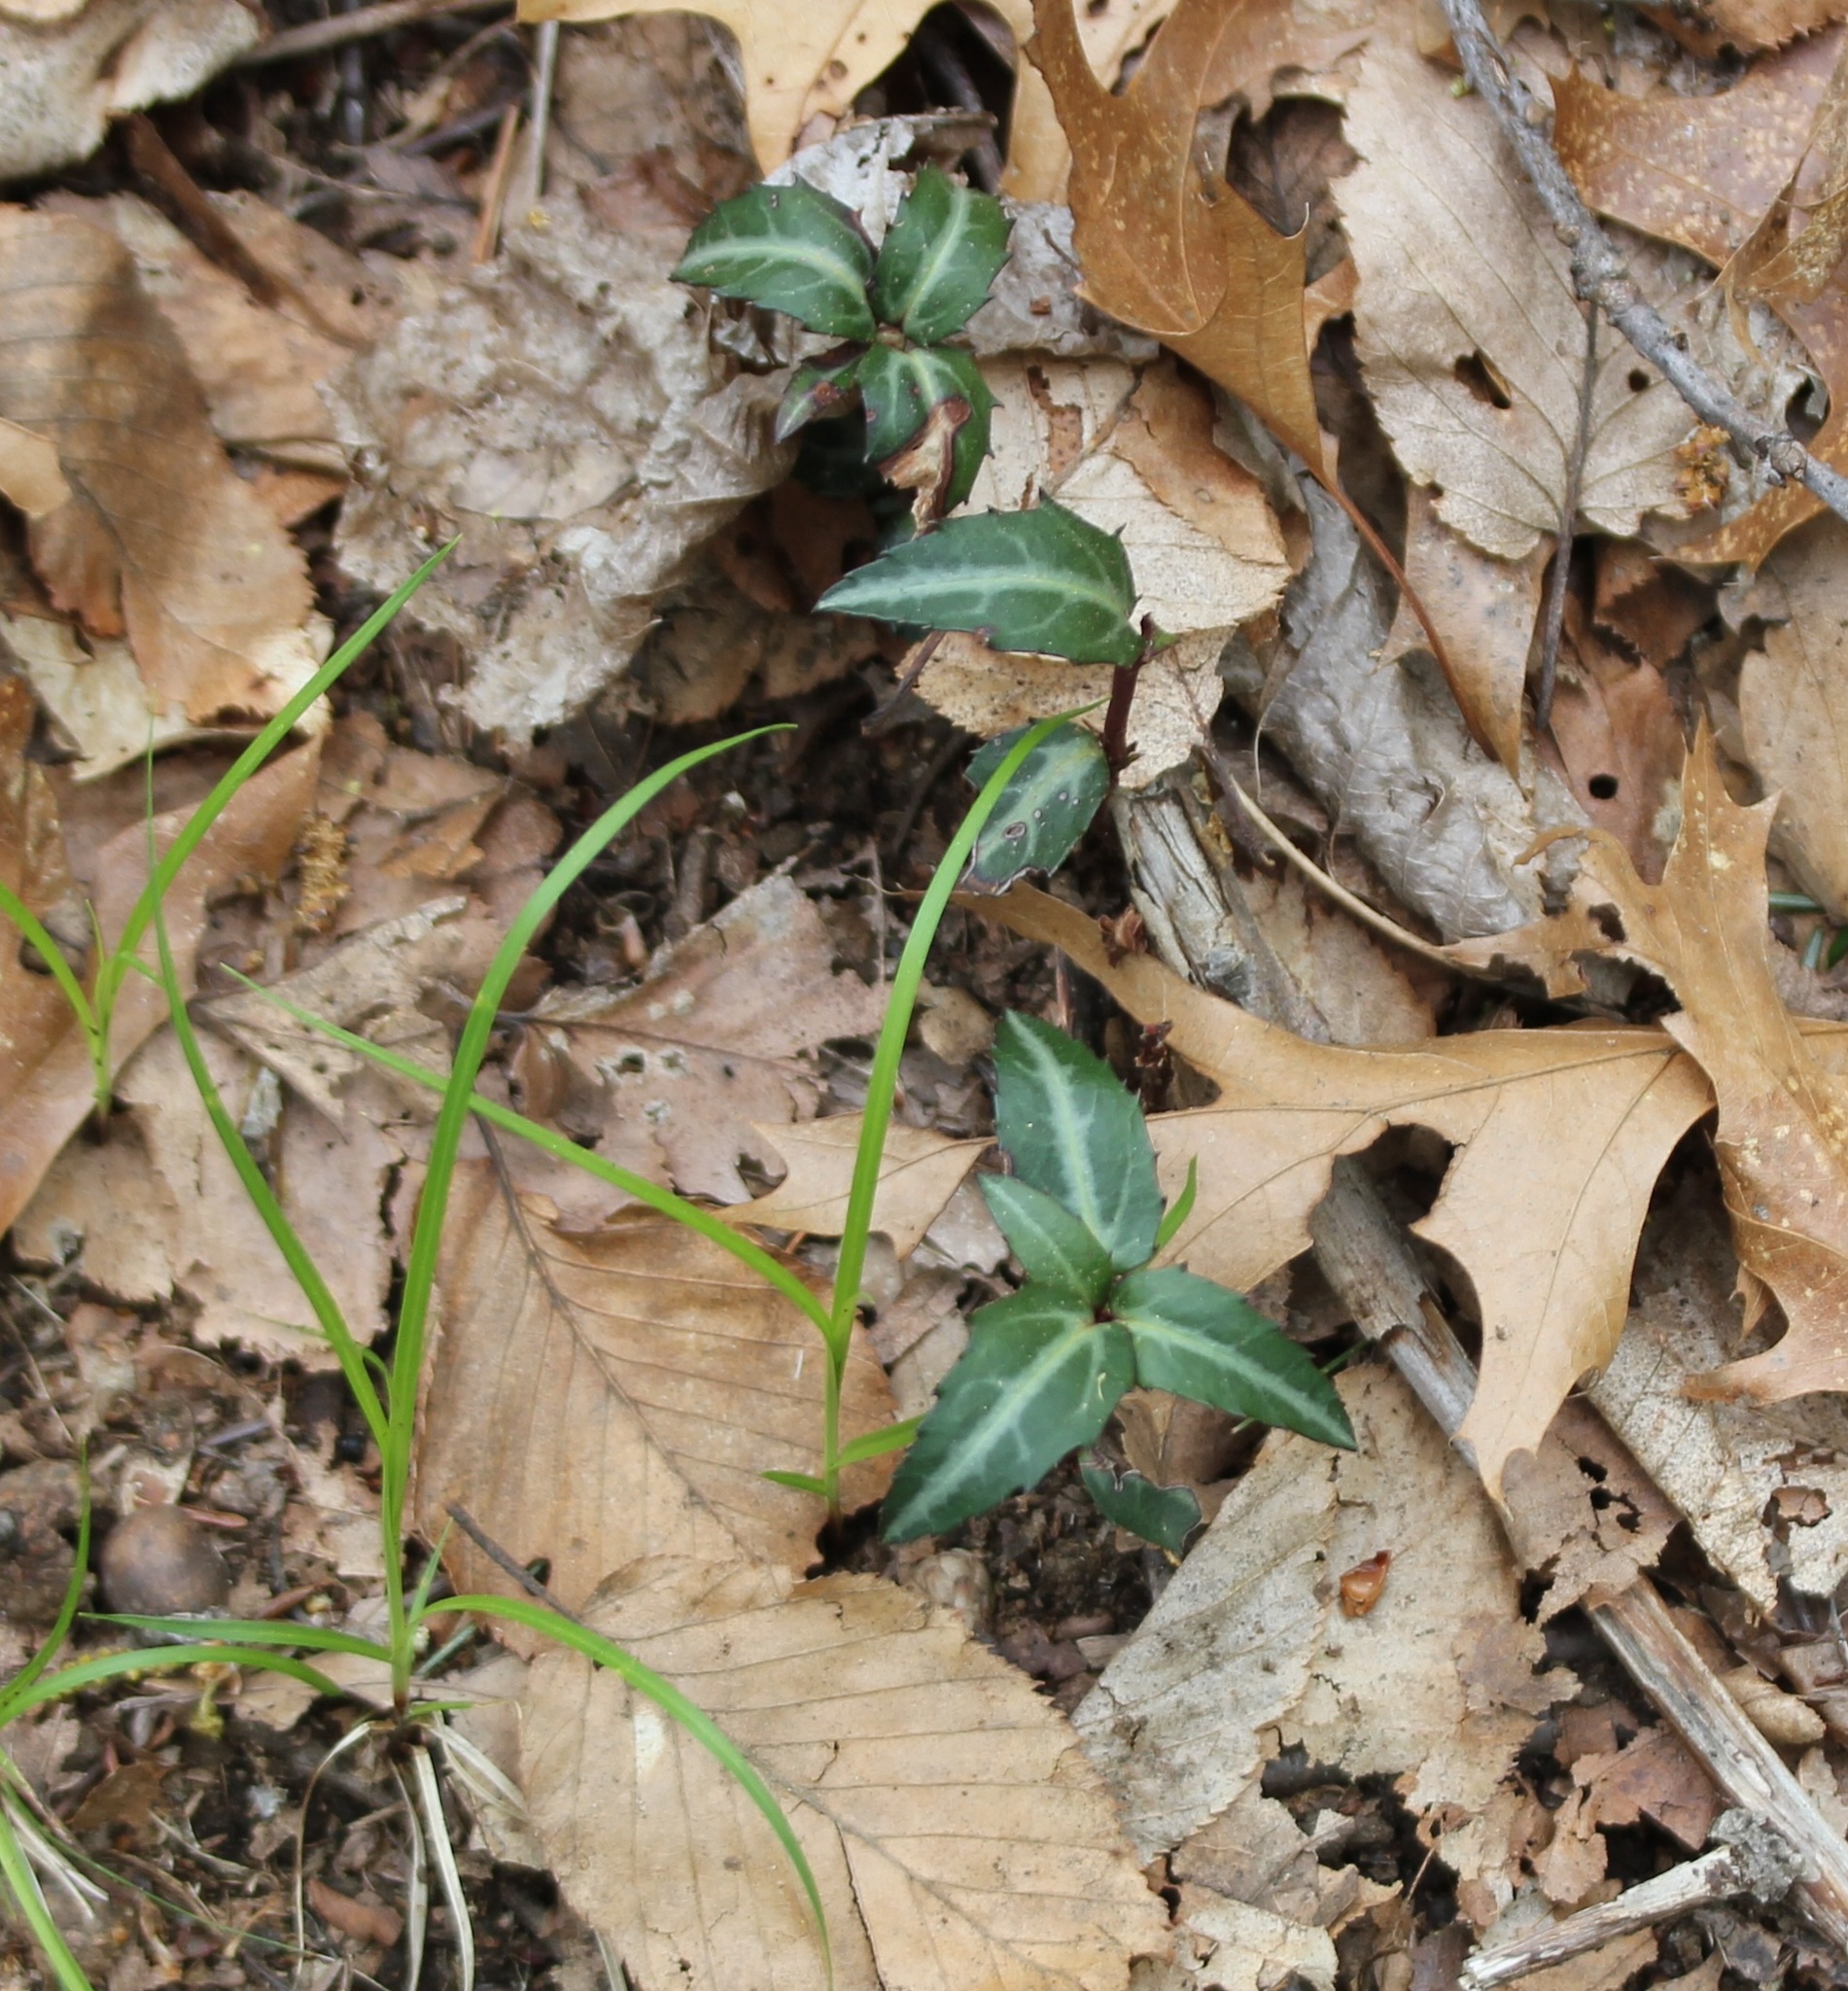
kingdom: Plantae
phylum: Tracheophyta
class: Magnoliopsida
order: Ericales
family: Ericaceae
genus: Chimaphila
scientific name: Chimaphila maculata
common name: Spotted pipsissewa
